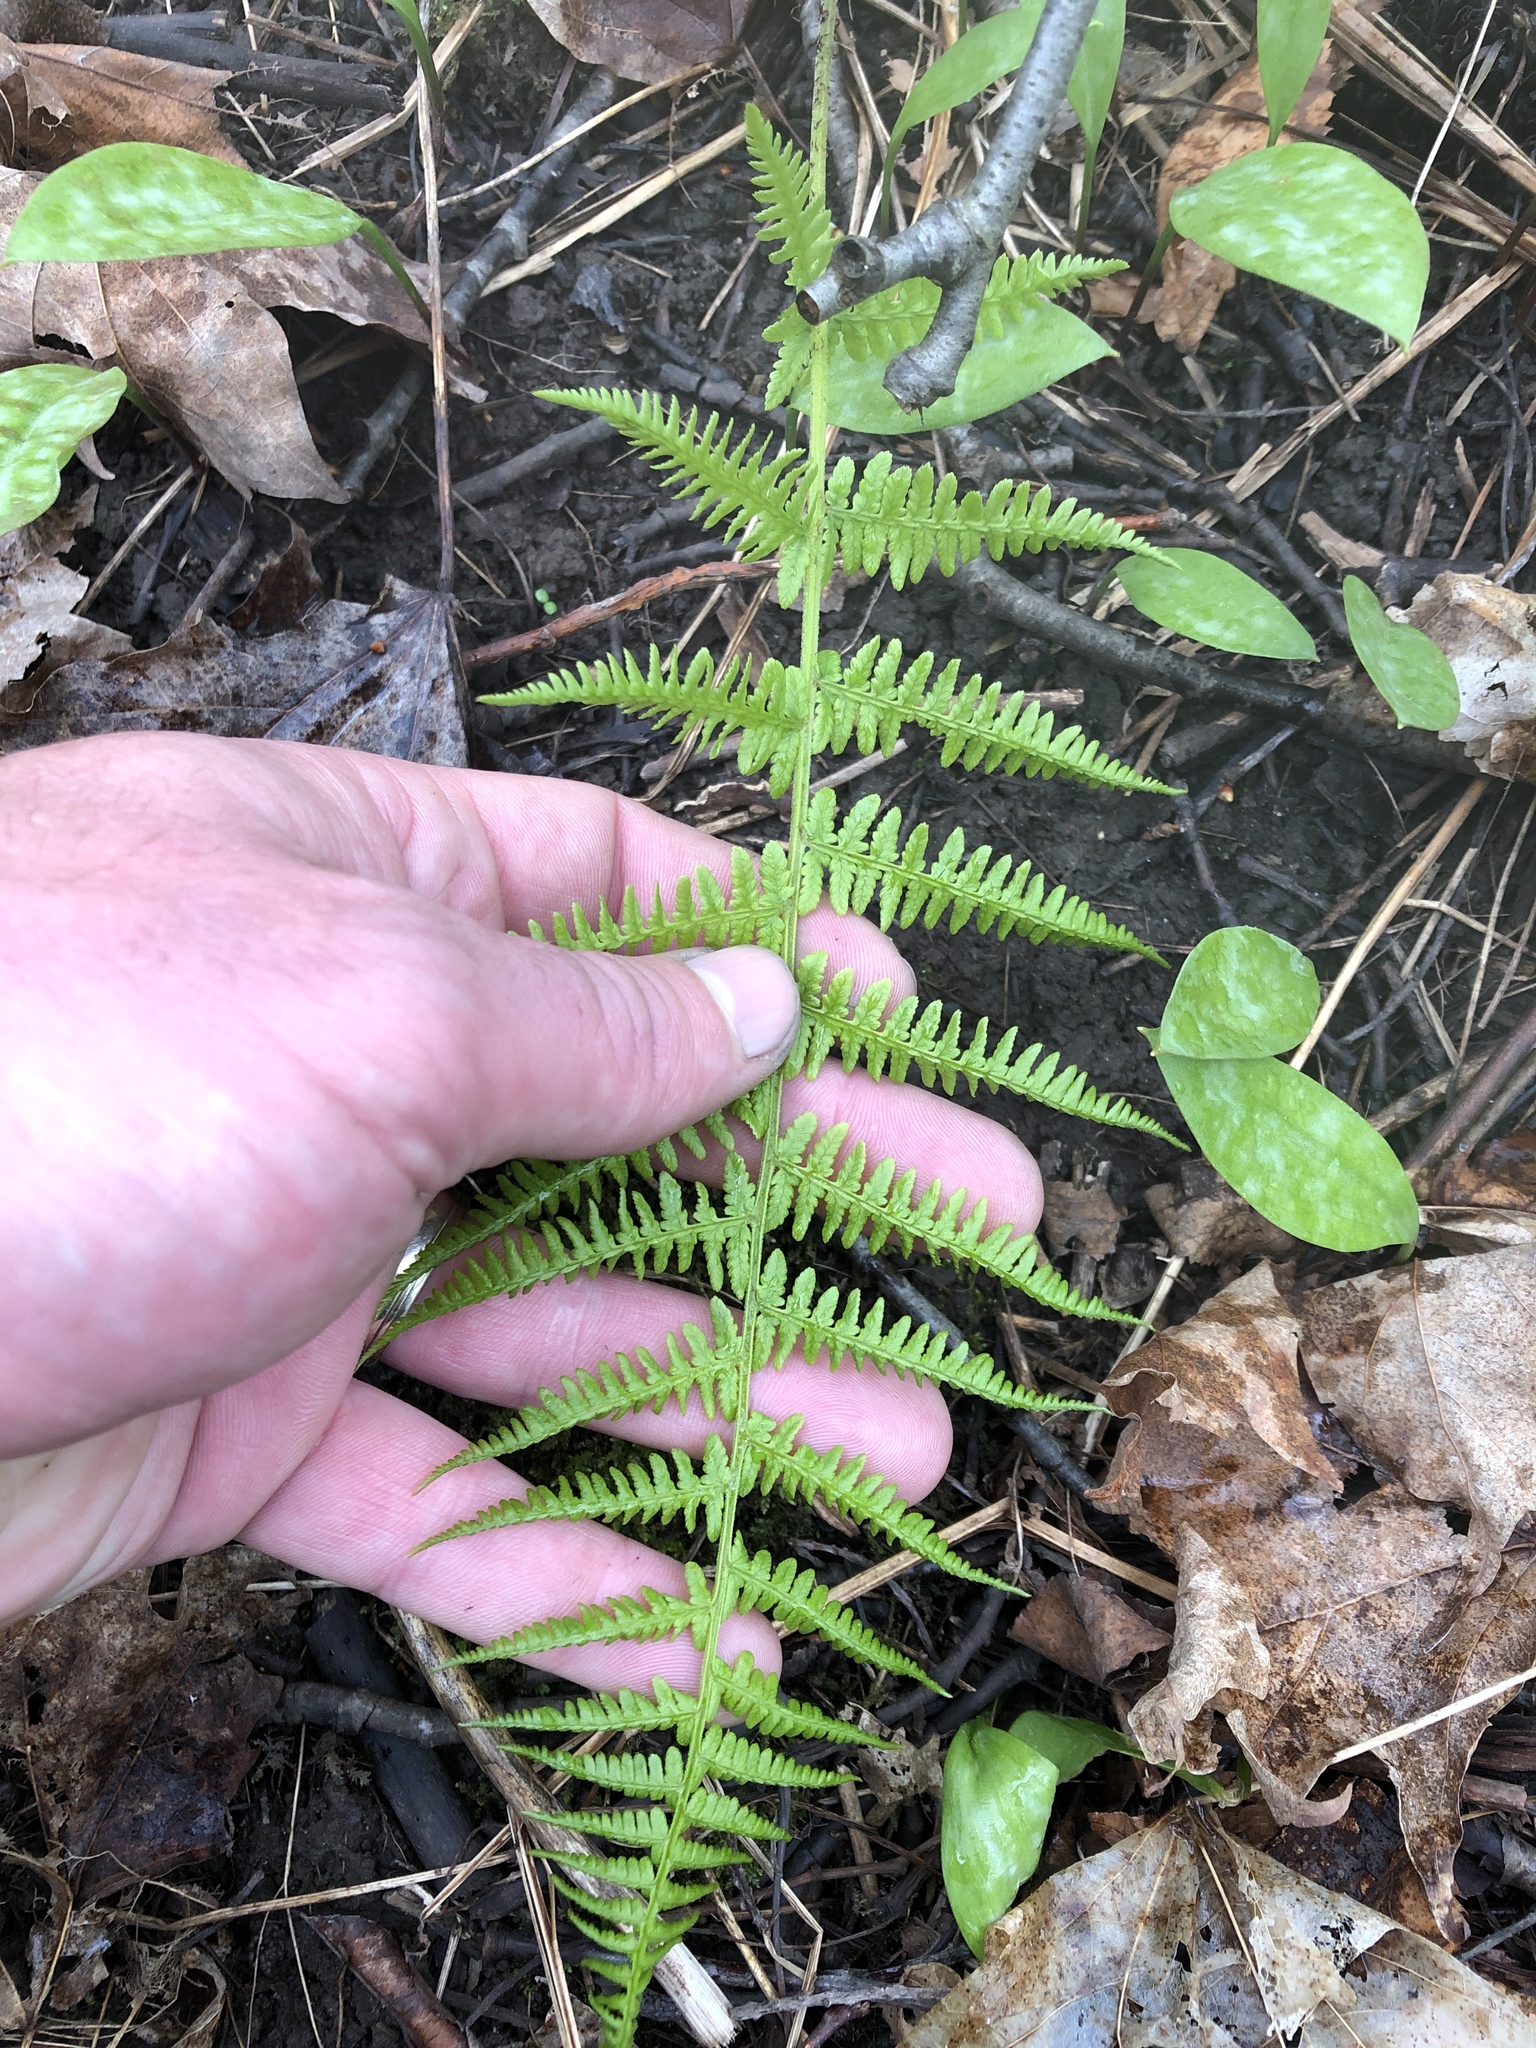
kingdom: Plantae
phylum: Tracheophyta
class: Polypodiopsida
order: Polypodiales
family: Athyriaceae
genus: Athyrium
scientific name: Athyrium angustum
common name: Northern lady fern
